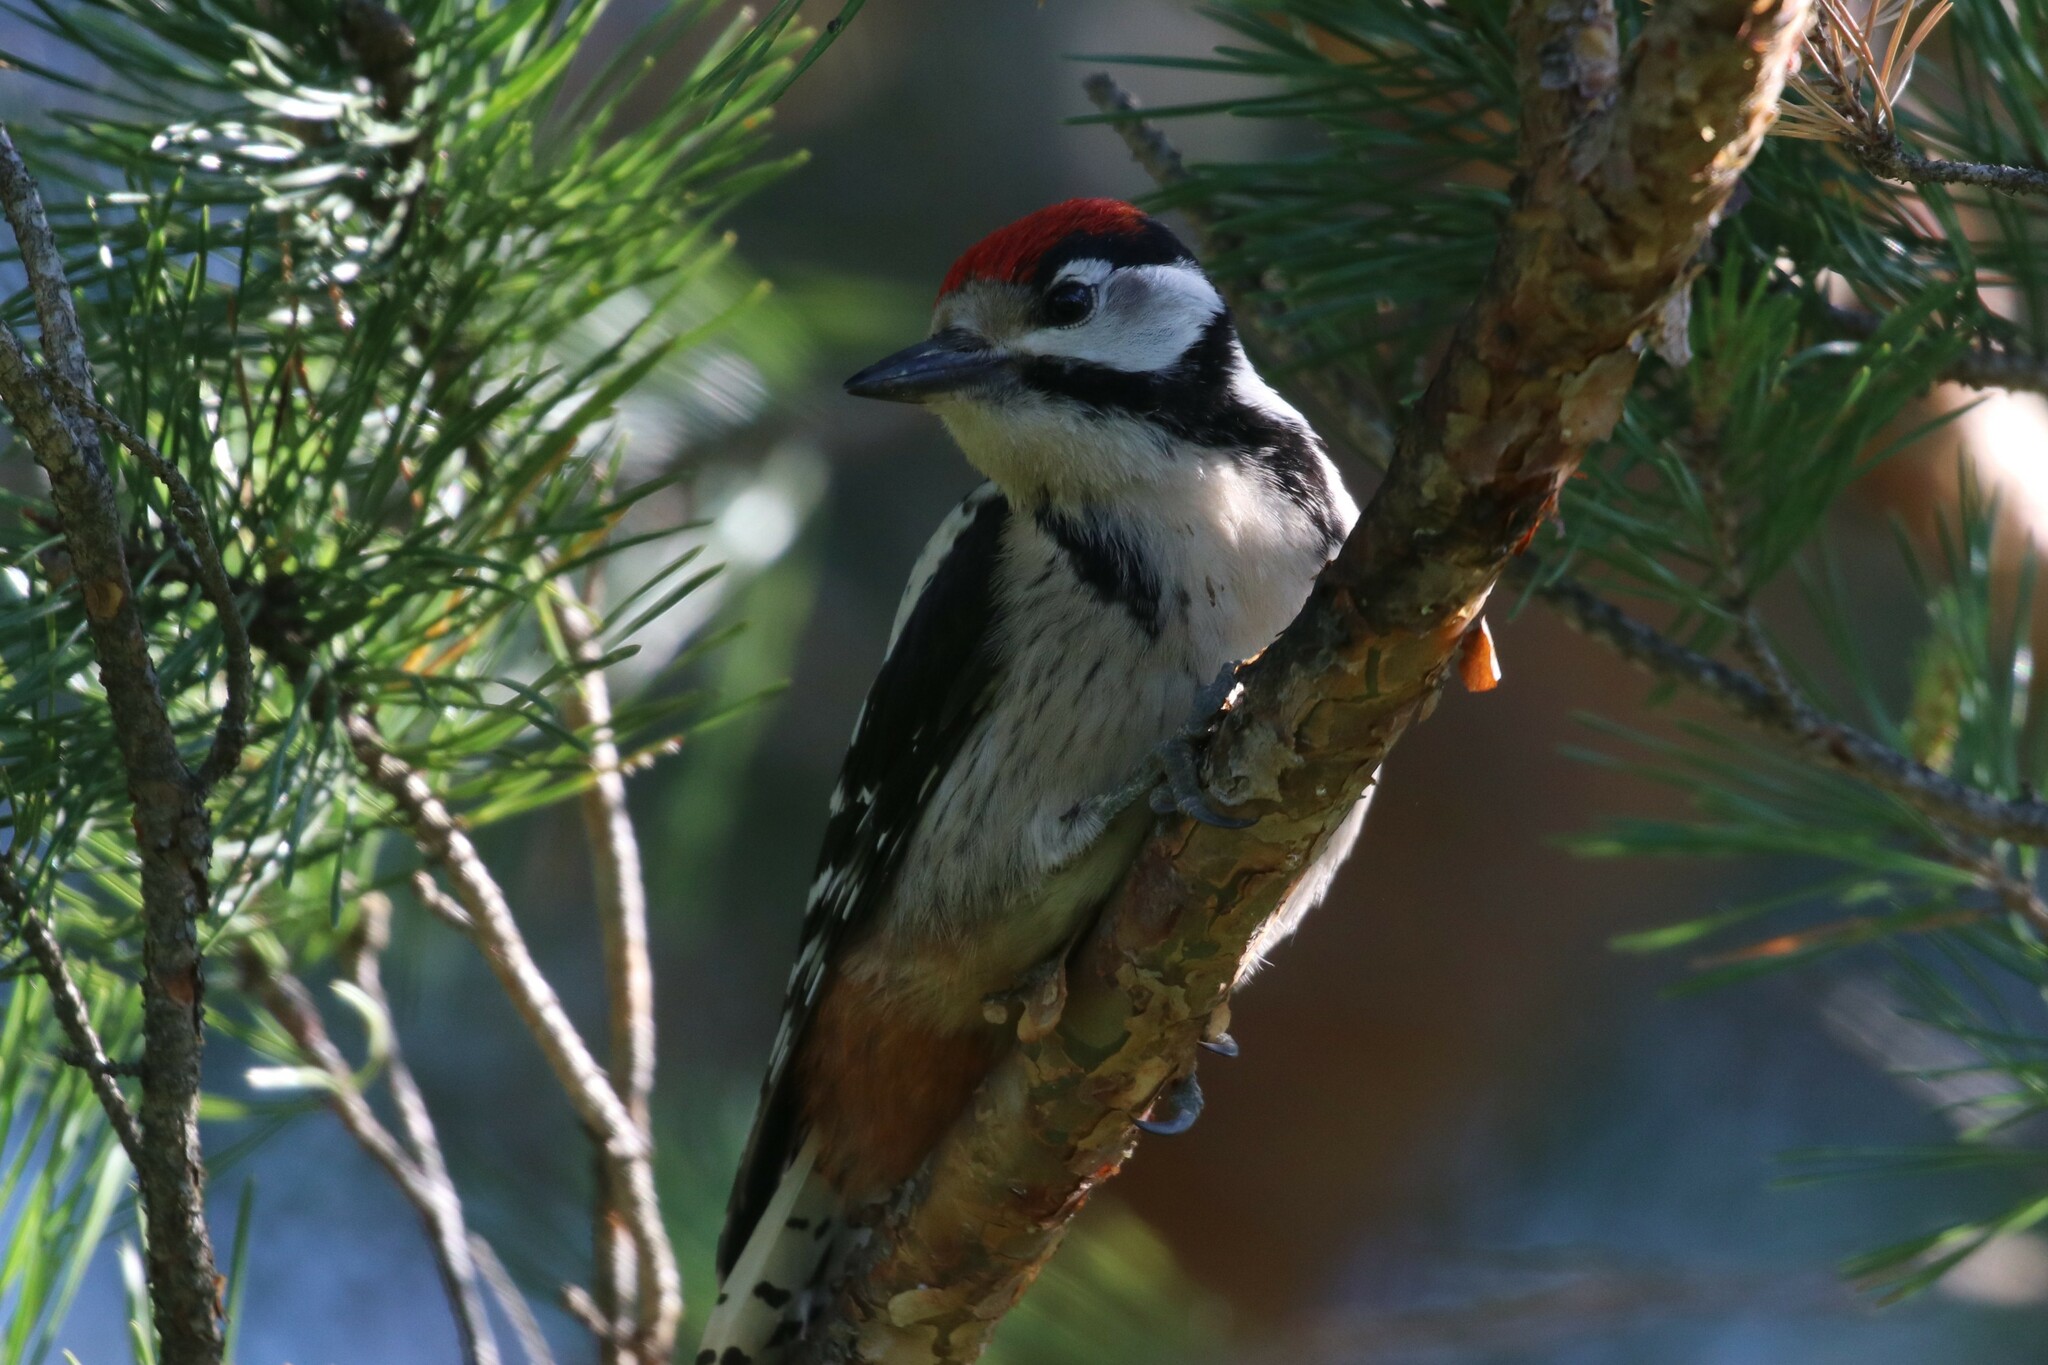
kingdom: Animalia
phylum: Chordata
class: Aves
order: Piciformes
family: Picidae
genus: Dendrocopos
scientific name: Dendrocopos major
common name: Great spotted woodpecker
